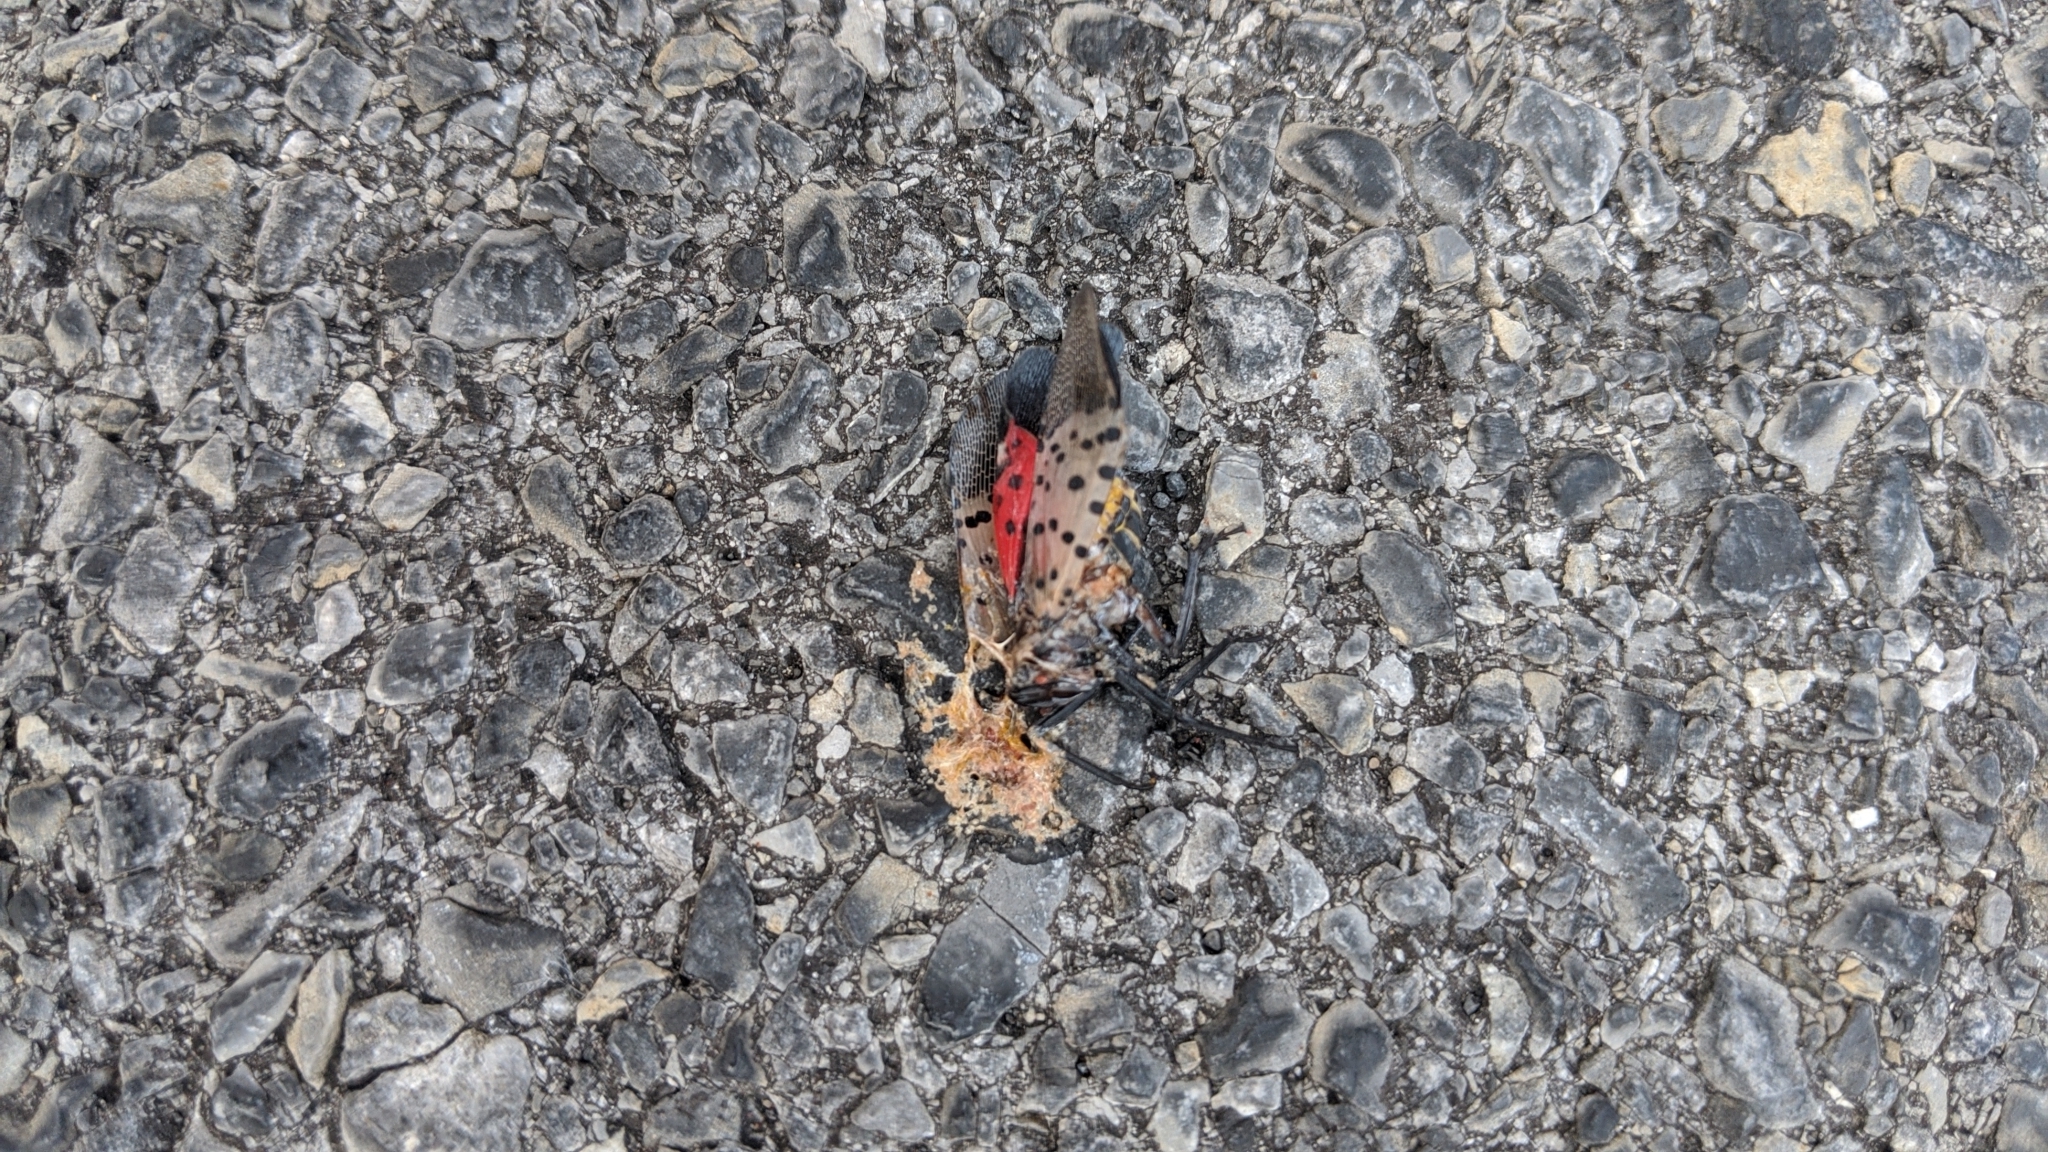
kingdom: Animalia
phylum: Arthropoda
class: Insecta
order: Hemiptera
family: Fulgoridae
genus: Lycorma
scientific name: Lycorma delicatula
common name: Spotted lanternfly
